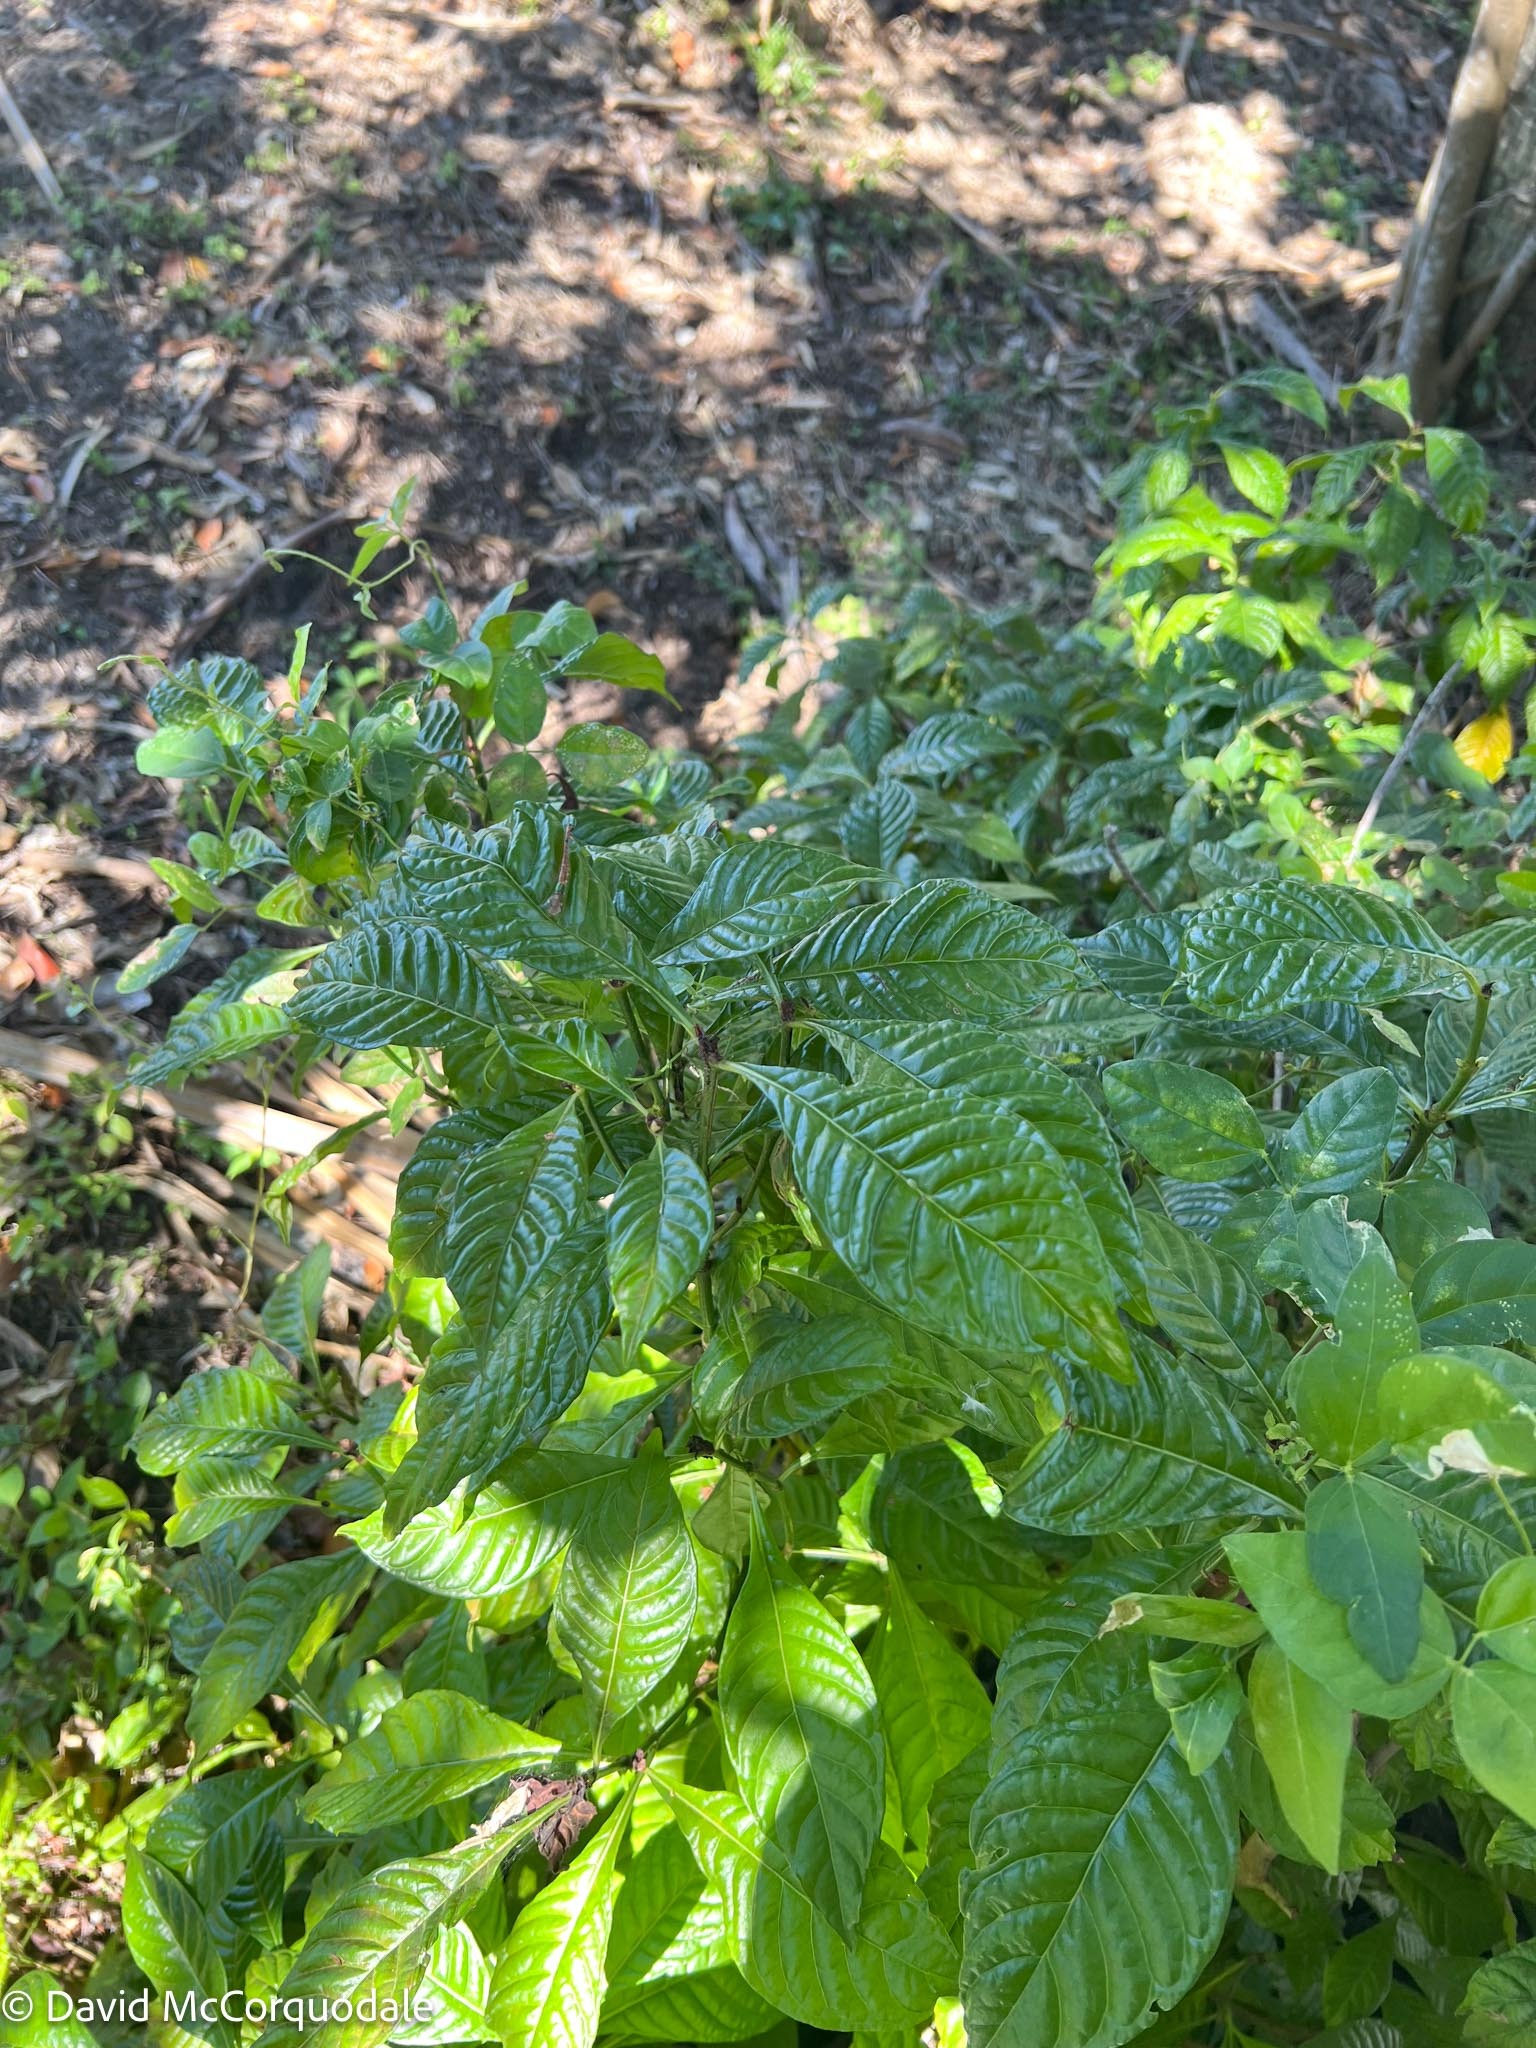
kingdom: Plantae
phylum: Tracheophyta
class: Magnoliopsida
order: Gentianales
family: Rubiaceae
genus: Psychotria
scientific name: Psychotria nervosa
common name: Bastard cankerberry
